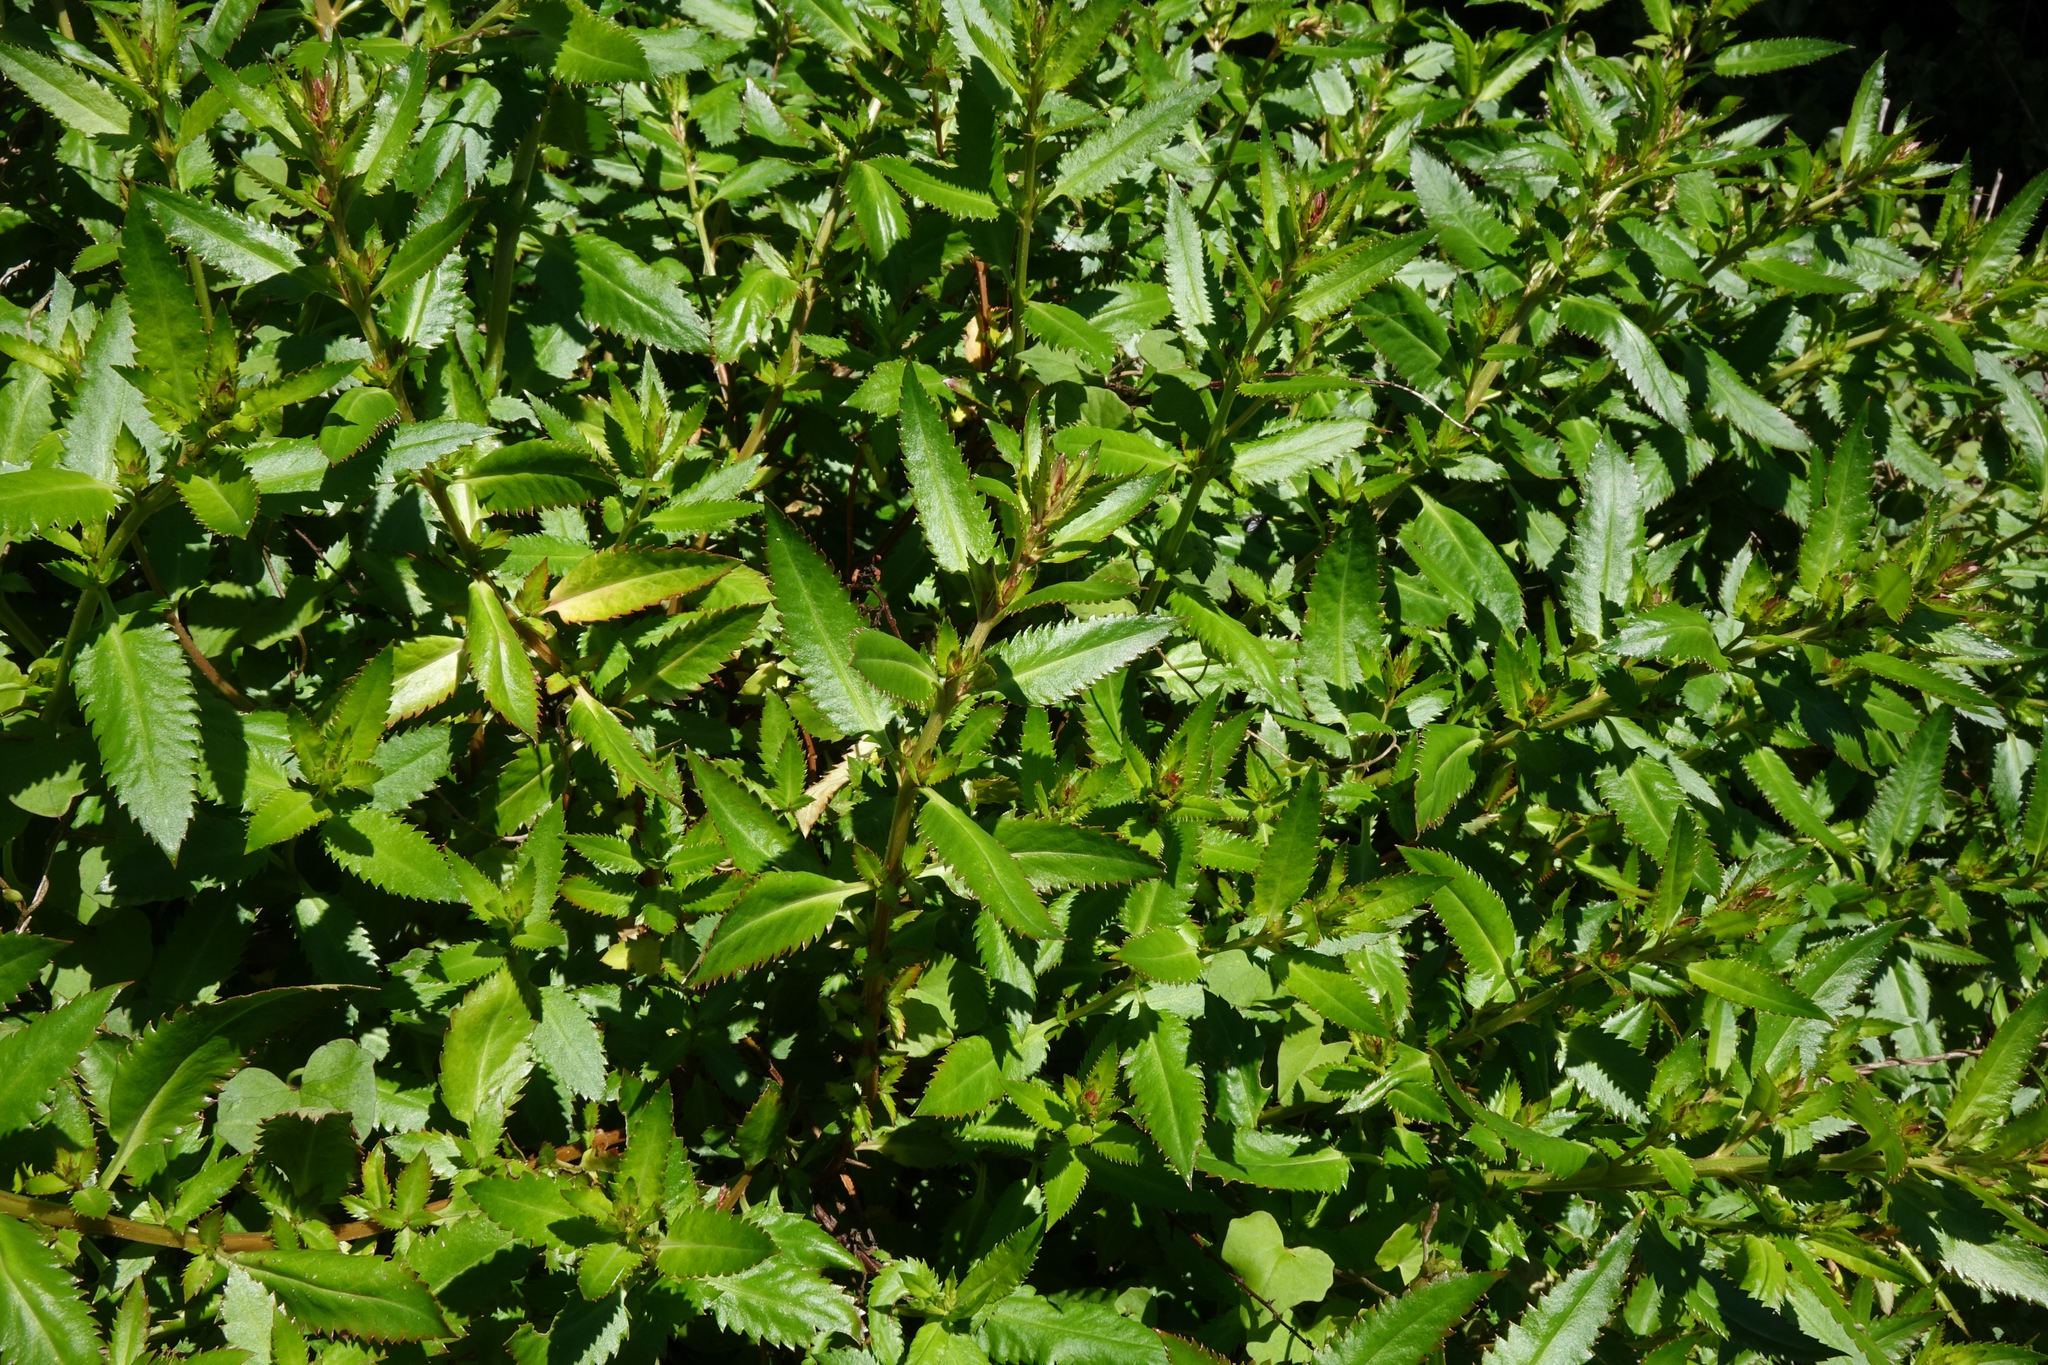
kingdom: Plantae
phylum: Tracheophyta
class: Magnoliopsida
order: Saxifragales
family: Haloragaceae
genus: Haloragis
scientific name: Haloragis erecta
